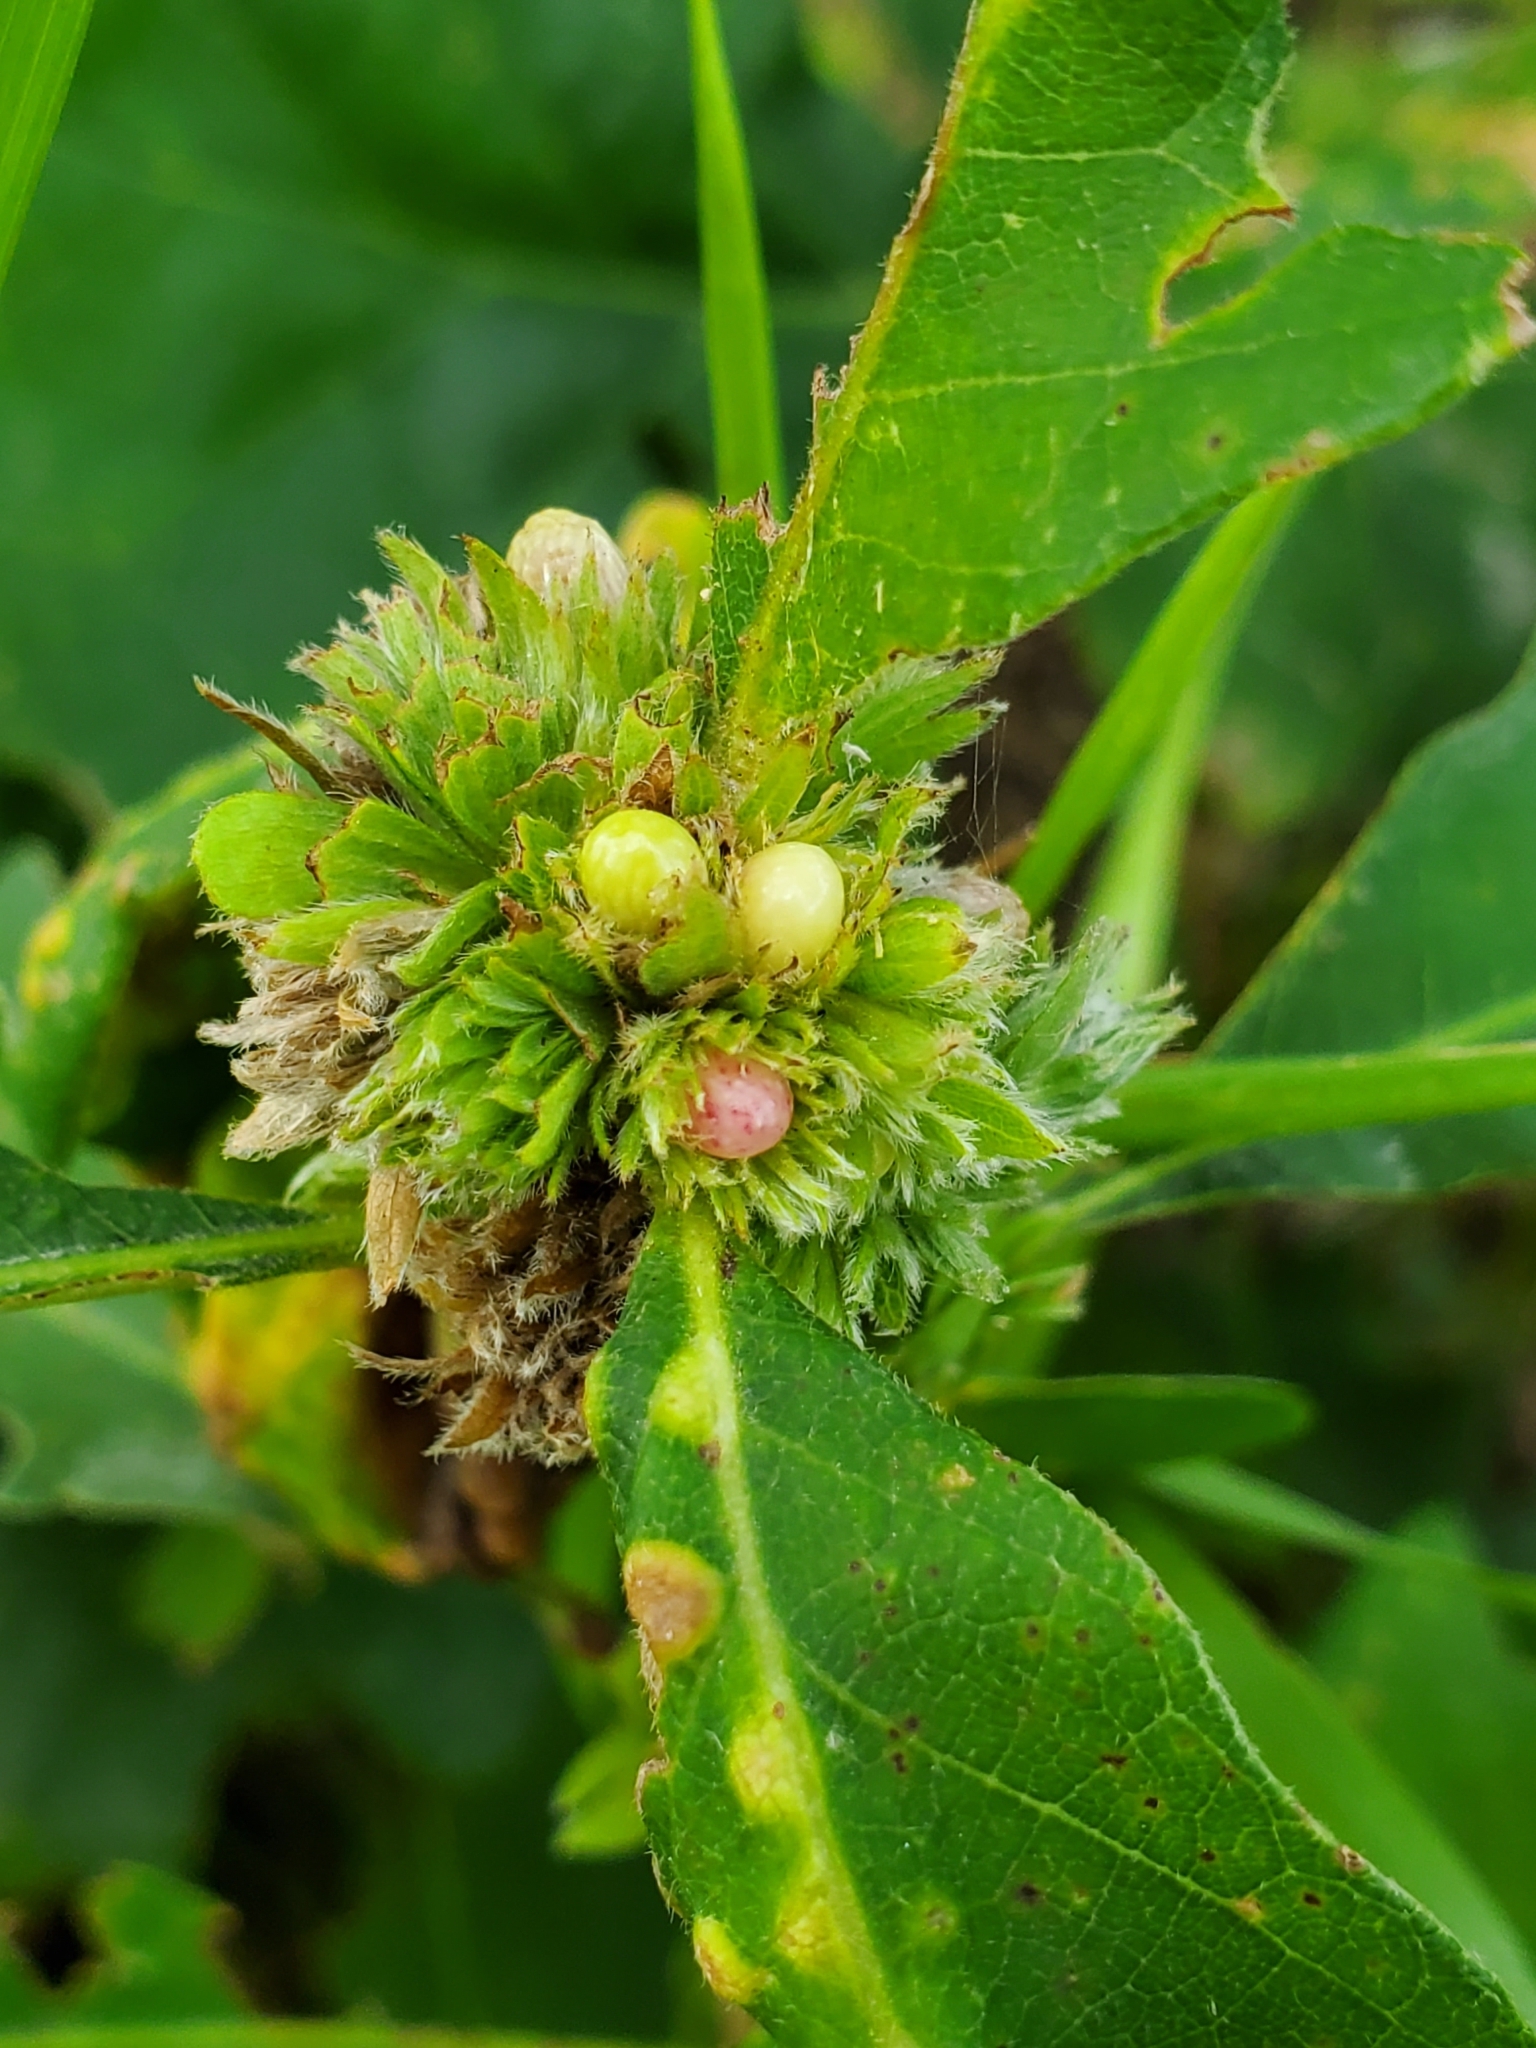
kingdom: Animalia
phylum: Arthropoda
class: Insecta
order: Hymenoptera
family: Cynipidae
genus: Andricus
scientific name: Andricus
